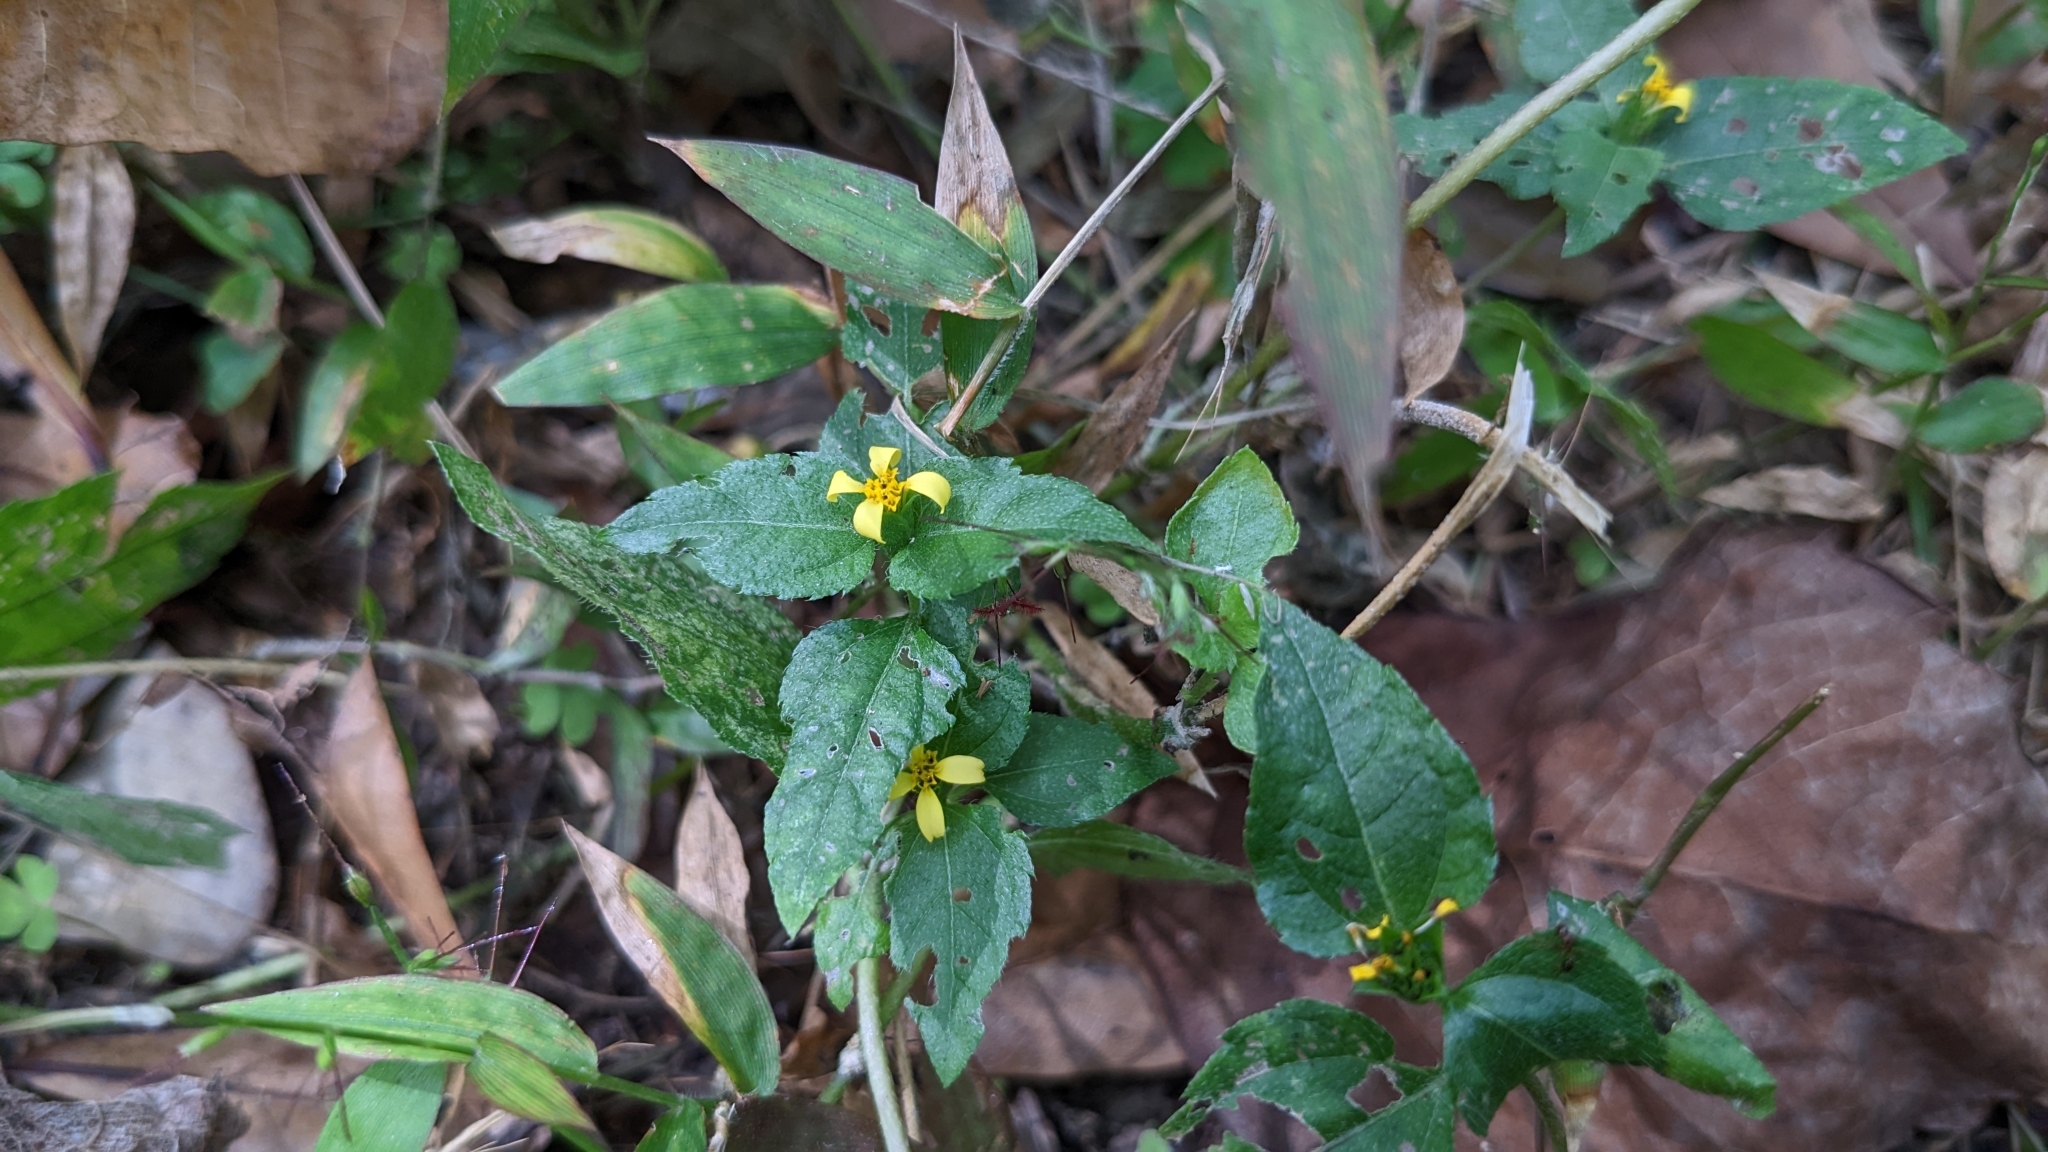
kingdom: Plantae
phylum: Tracheophyta
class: Magnoliopsida
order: Asterales
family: Asteraceae
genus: Calyptocarpus
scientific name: Calyptocarpus vialis
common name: Straggler daisy
